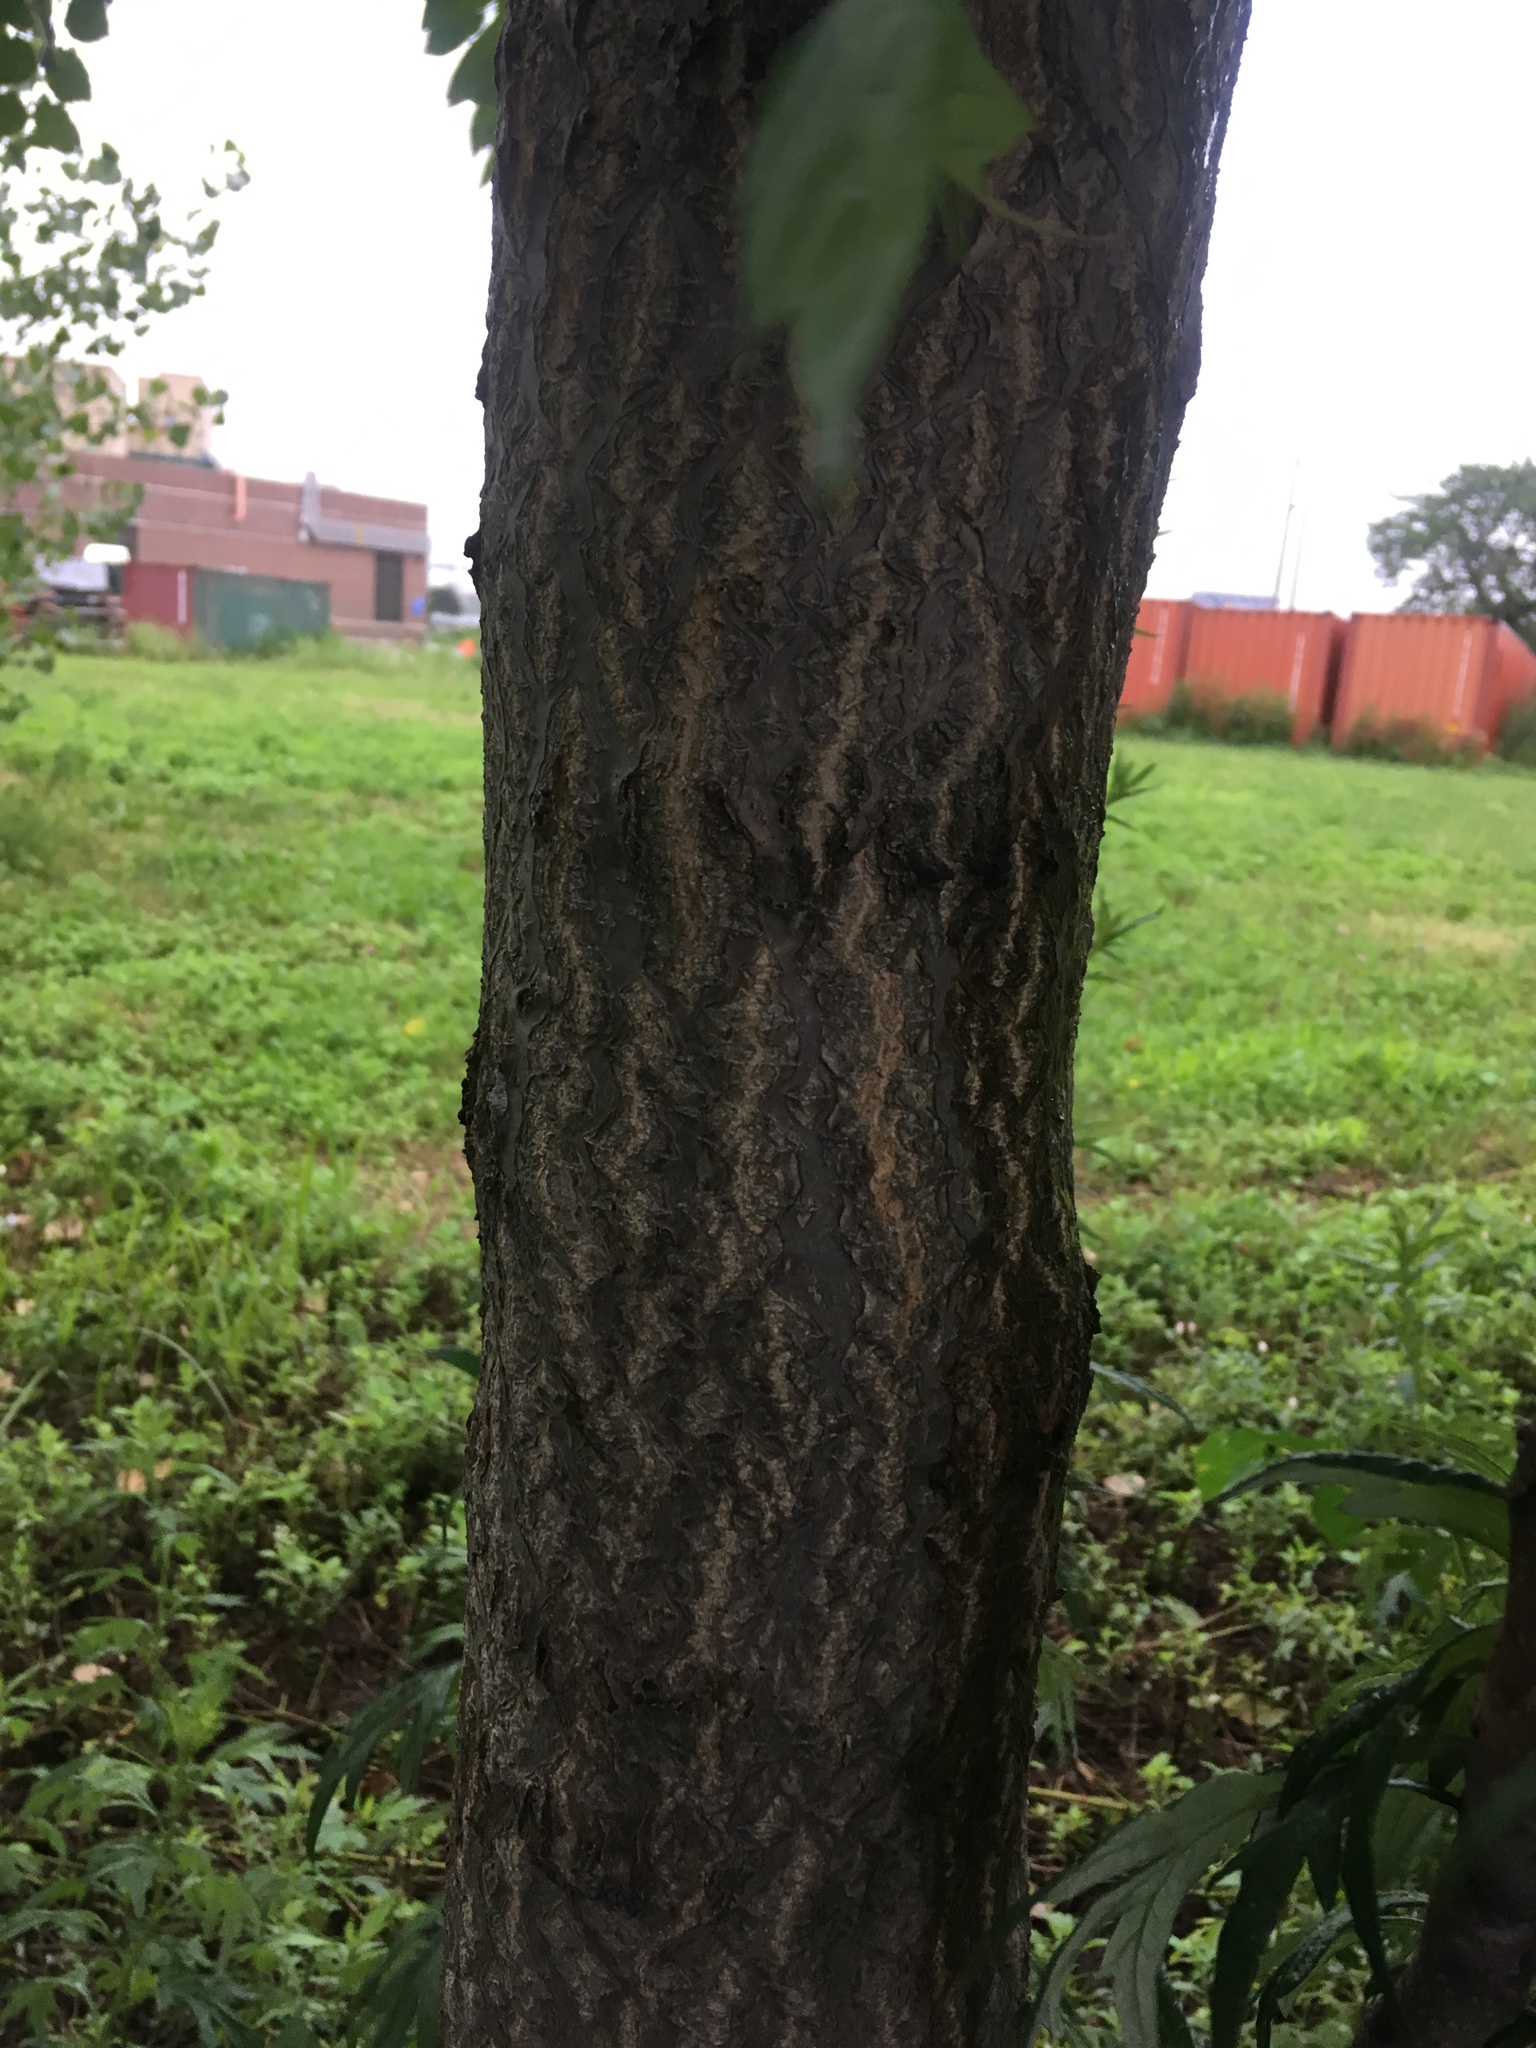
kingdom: Plantae
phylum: Tracheophyta
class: Magnoliopsida
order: Sapindales
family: Simaroubaceae
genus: Ailanthus
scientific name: Ailanthus altissima
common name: Tree-of-heaven
